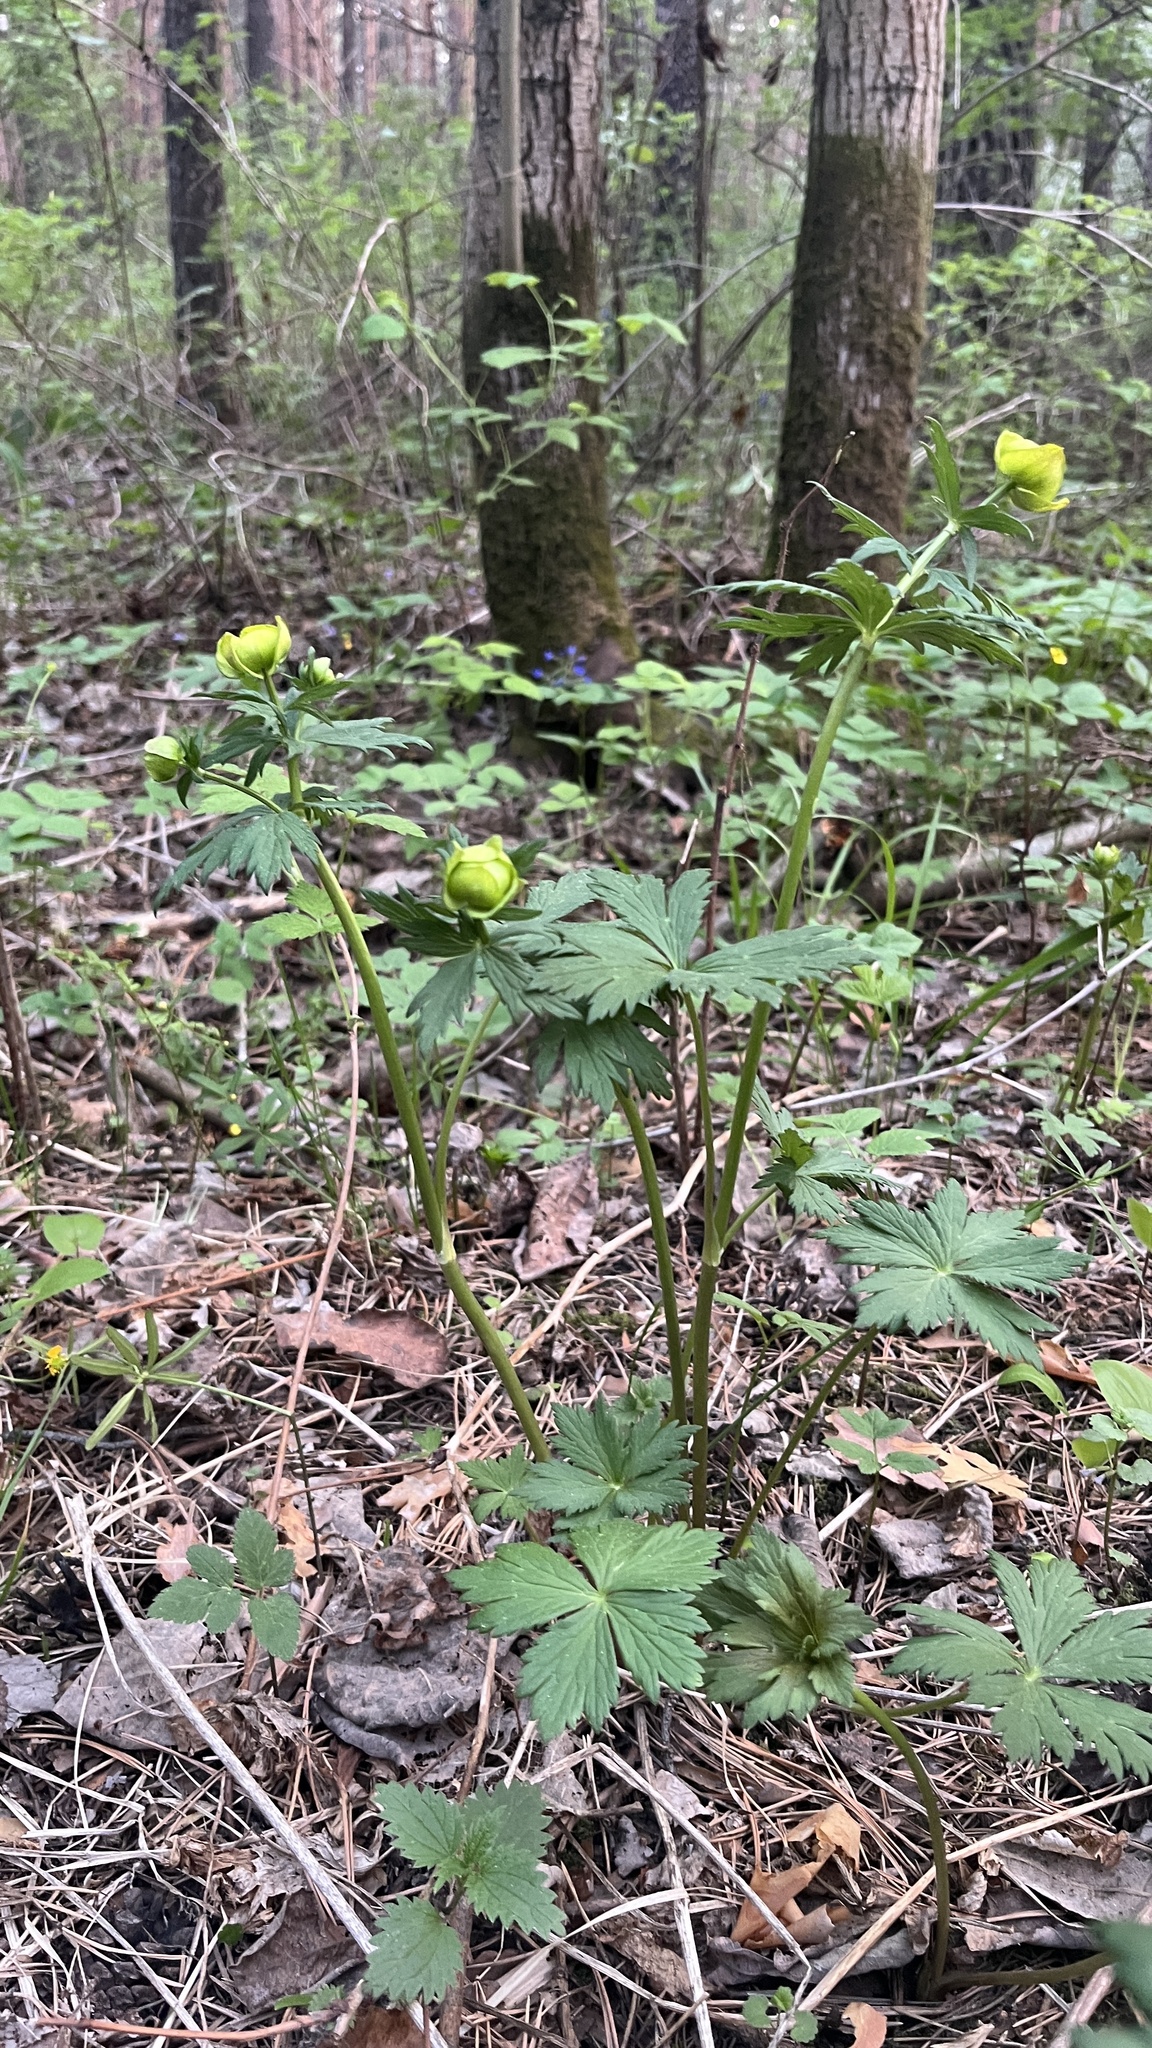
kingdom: Plantae
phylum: Tracheophyta
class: Magnoliopsida
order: Ranunculales
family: Ranunculaceae
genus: Trollius
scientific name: Trollius europaeus
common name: European globeflower
